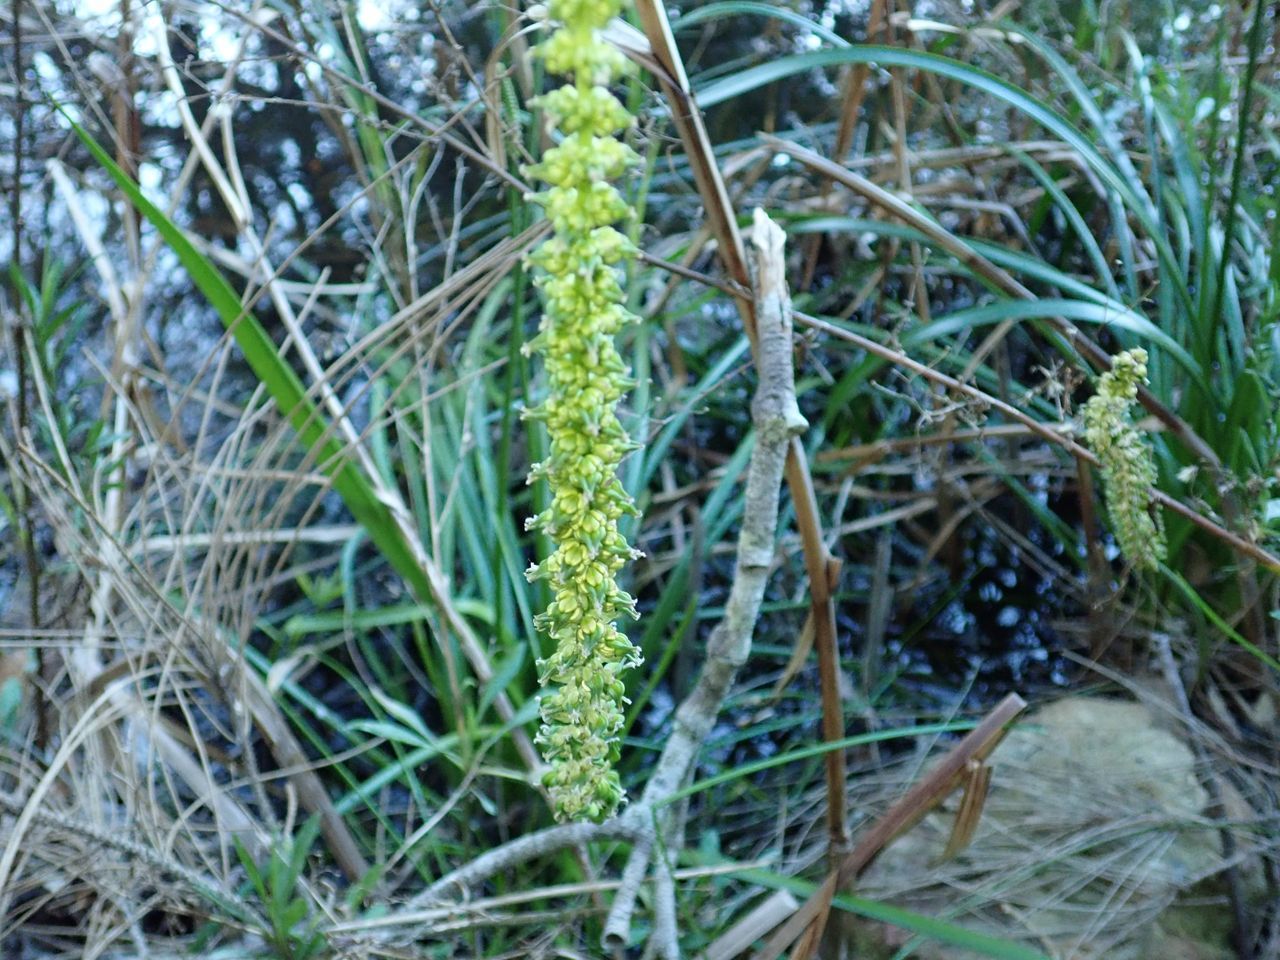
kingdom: Plantae
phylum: Tracheophyta
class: Liliopsida
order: Alismatales
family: Juncaginaceae
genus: Triglochin
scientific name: Triglochin striata
